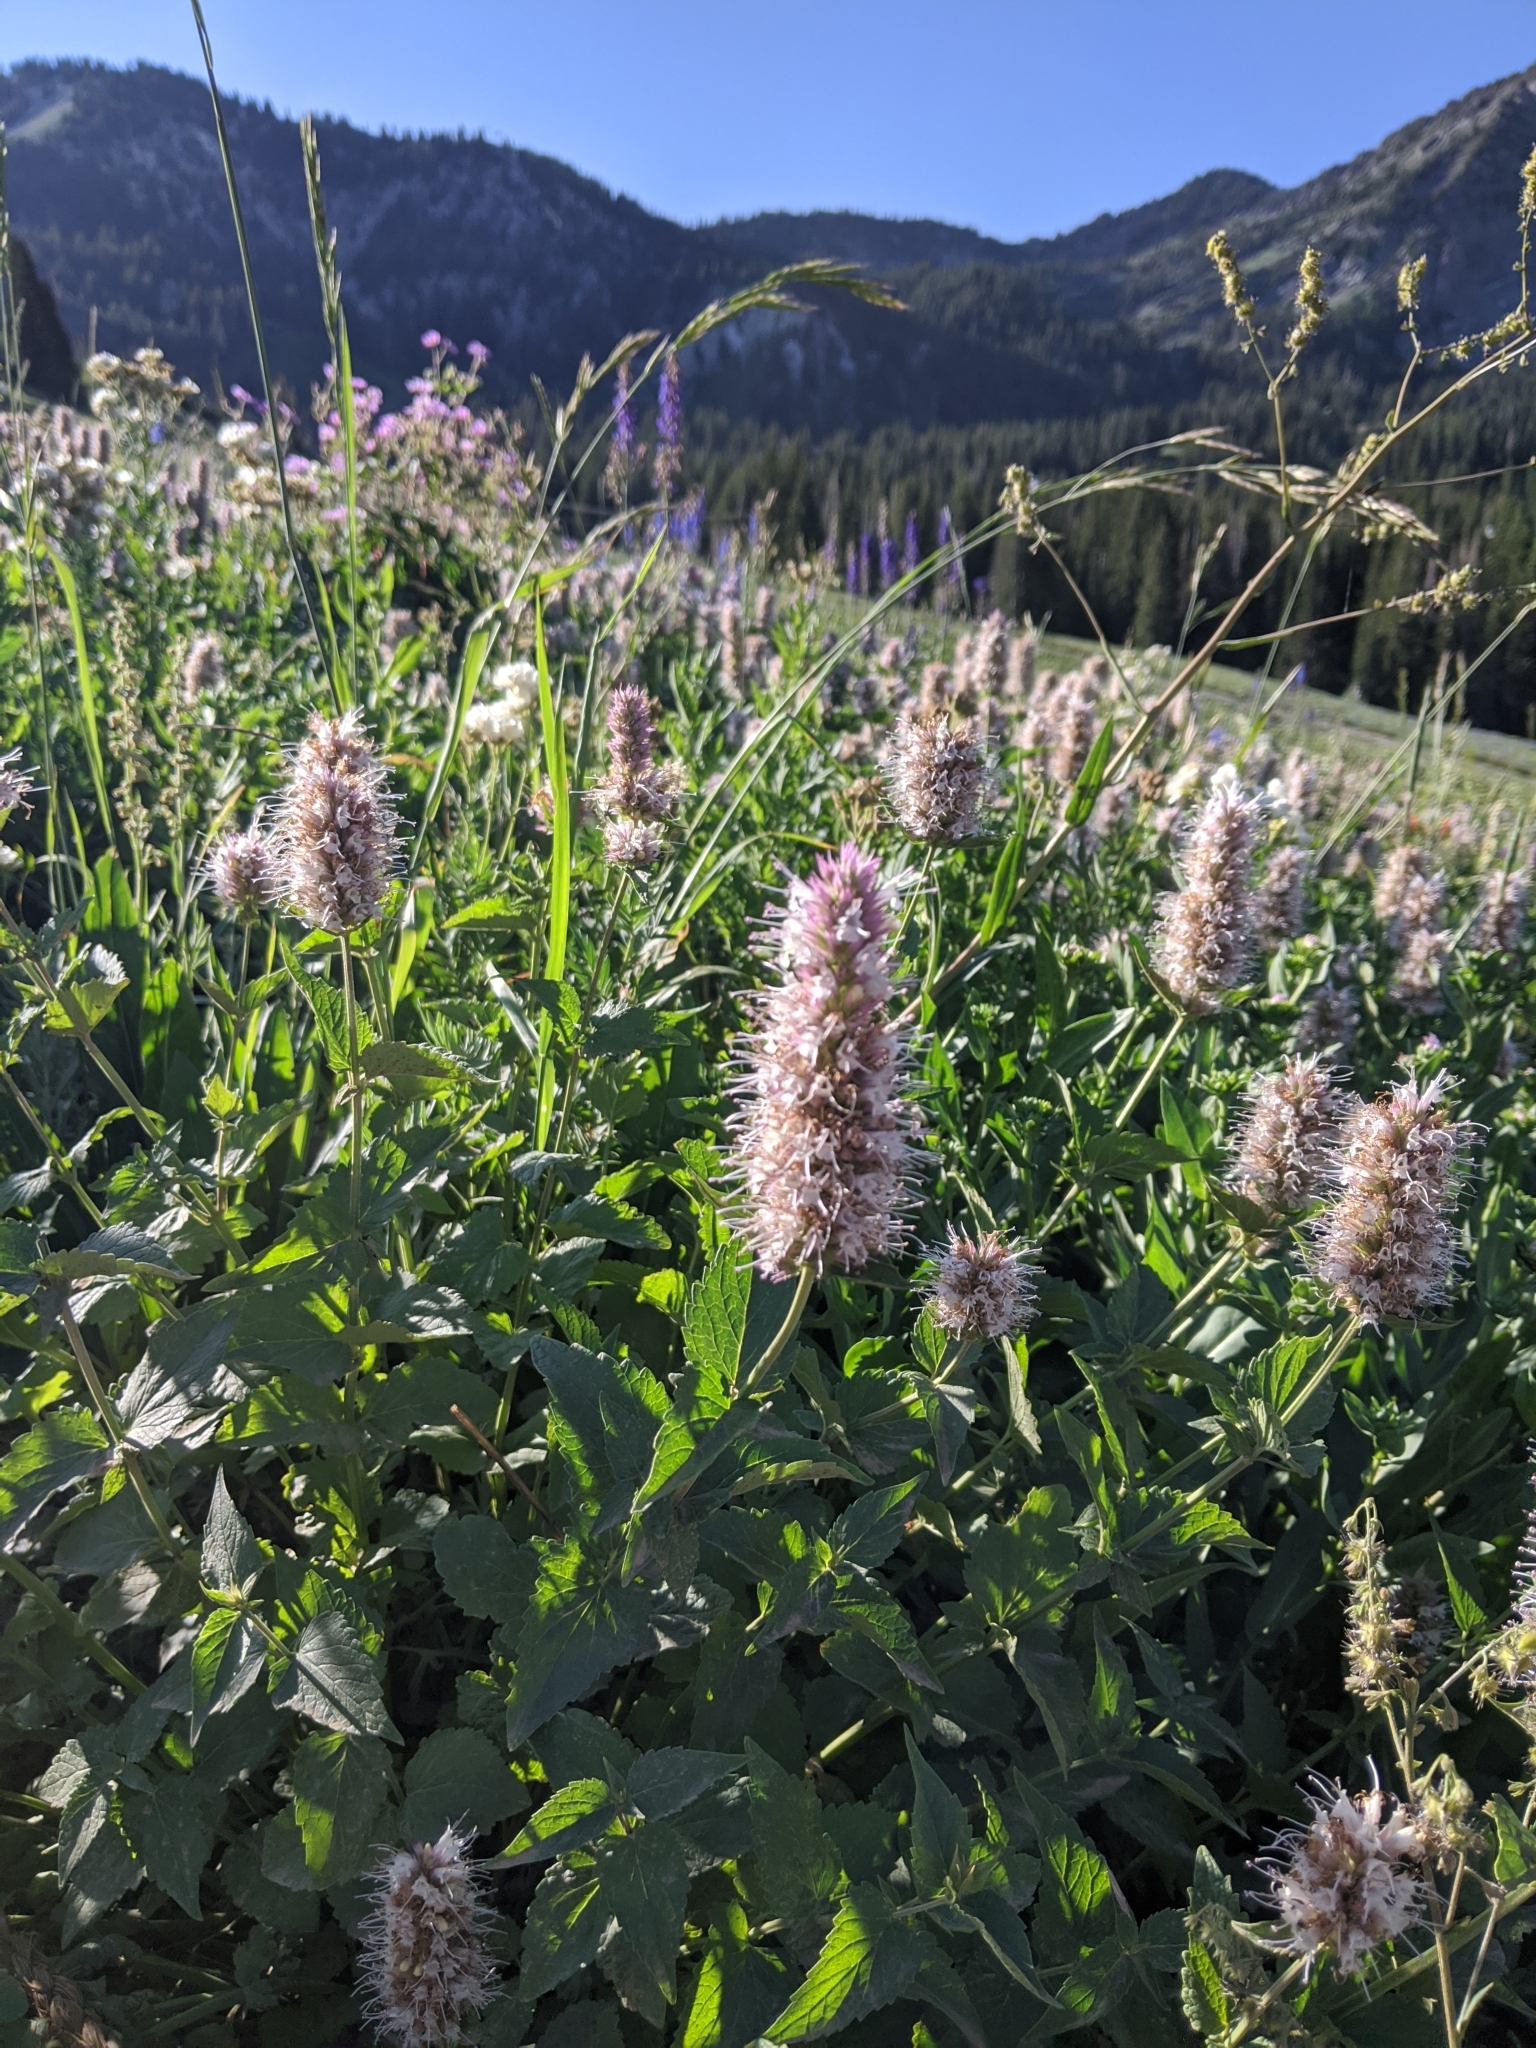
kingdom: Plantae
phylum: Tracheophyta
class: Magnoliopsida
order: Lamiales
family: Lamiaceae
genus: Agastache
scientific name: Agastache urticifolia
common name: Horsemint giant hyssop
